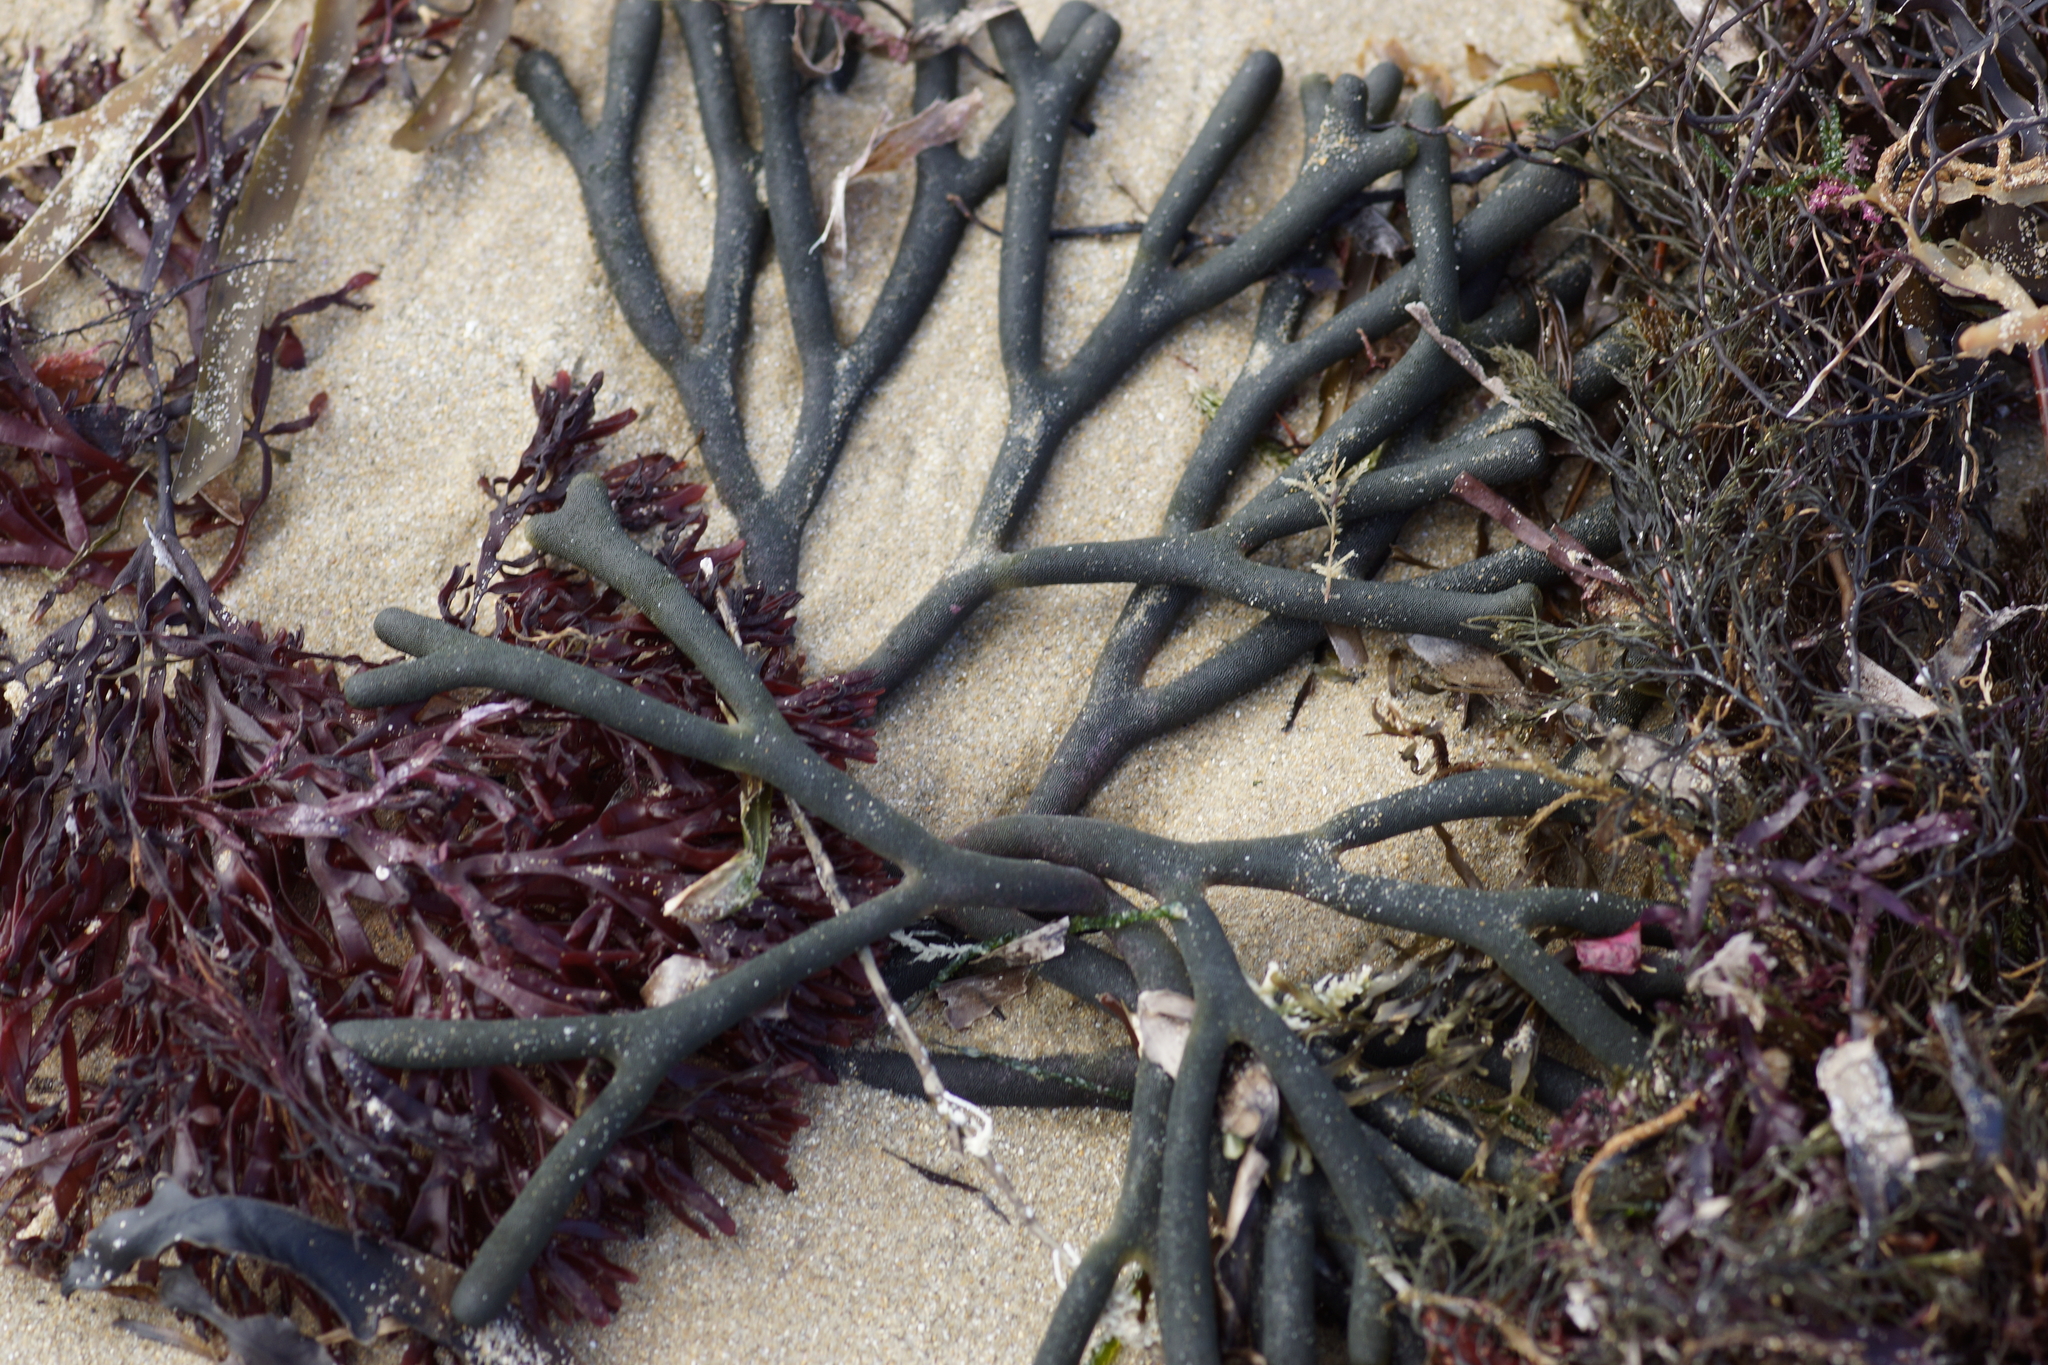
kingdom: Plantae
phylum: Chlorophyta
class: Ulvophyceae
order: Bryopsidales
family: Codiaceae
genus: Codium
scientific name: Codium fragile
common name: Dead man's fingers
